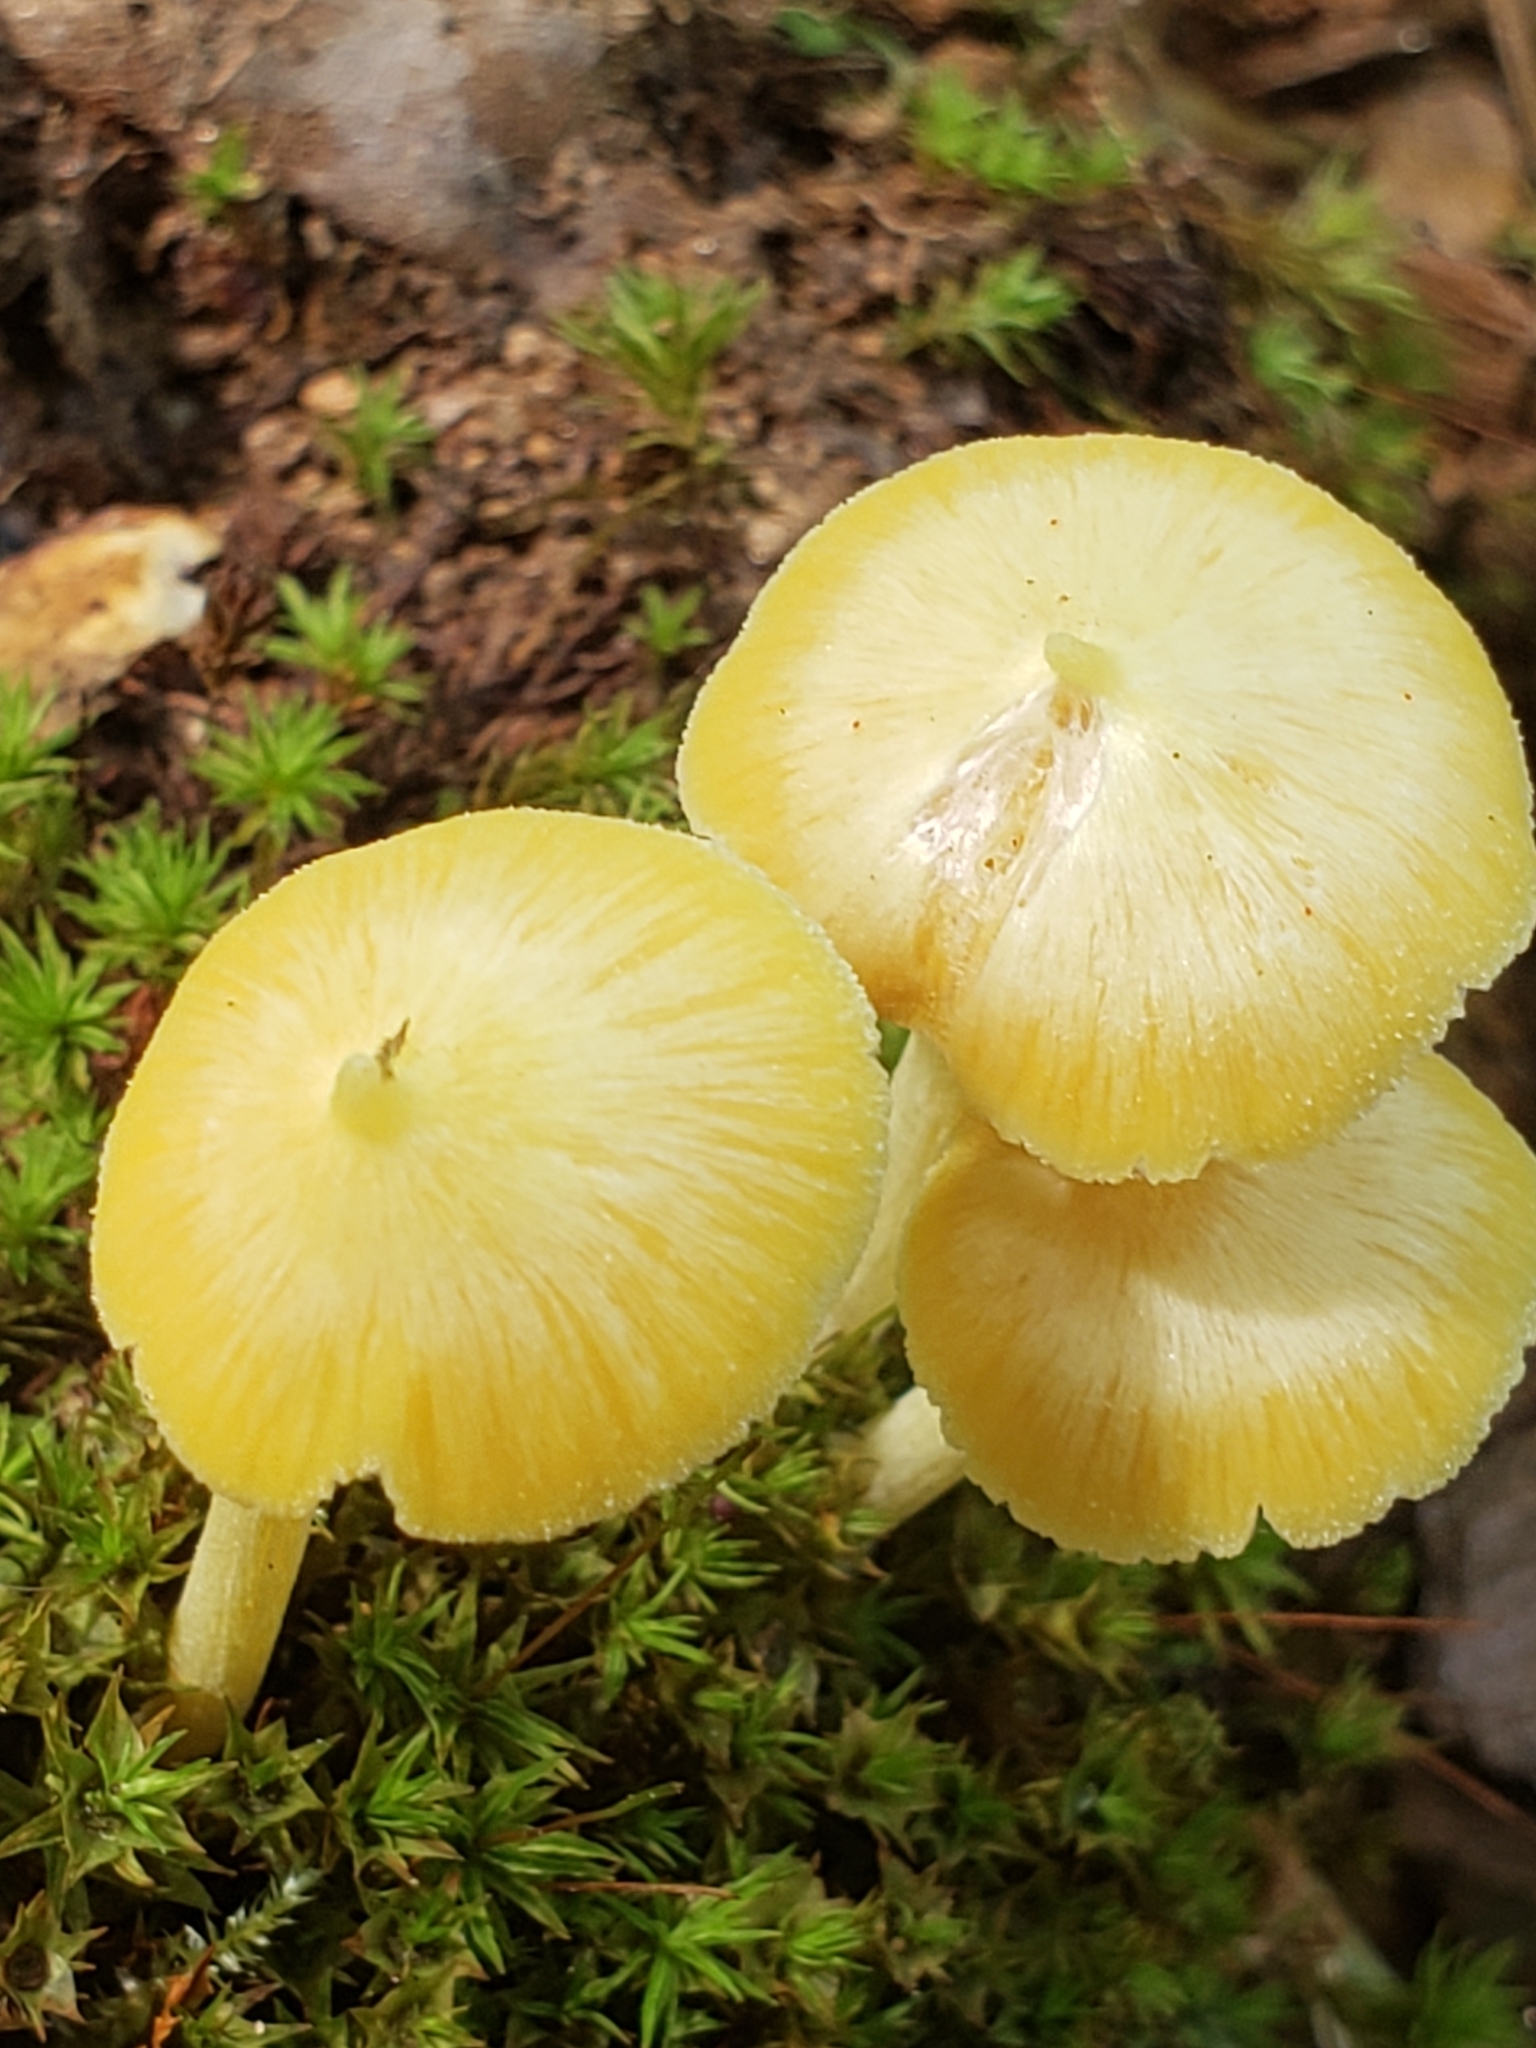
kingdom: Fungi
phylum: Basidiomycota
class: Agaricomycetes
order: Agaricales
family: Entolomataceae
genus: Entoloma
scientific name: Entoloma murrayi
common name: Yellow unicorn entoloma
